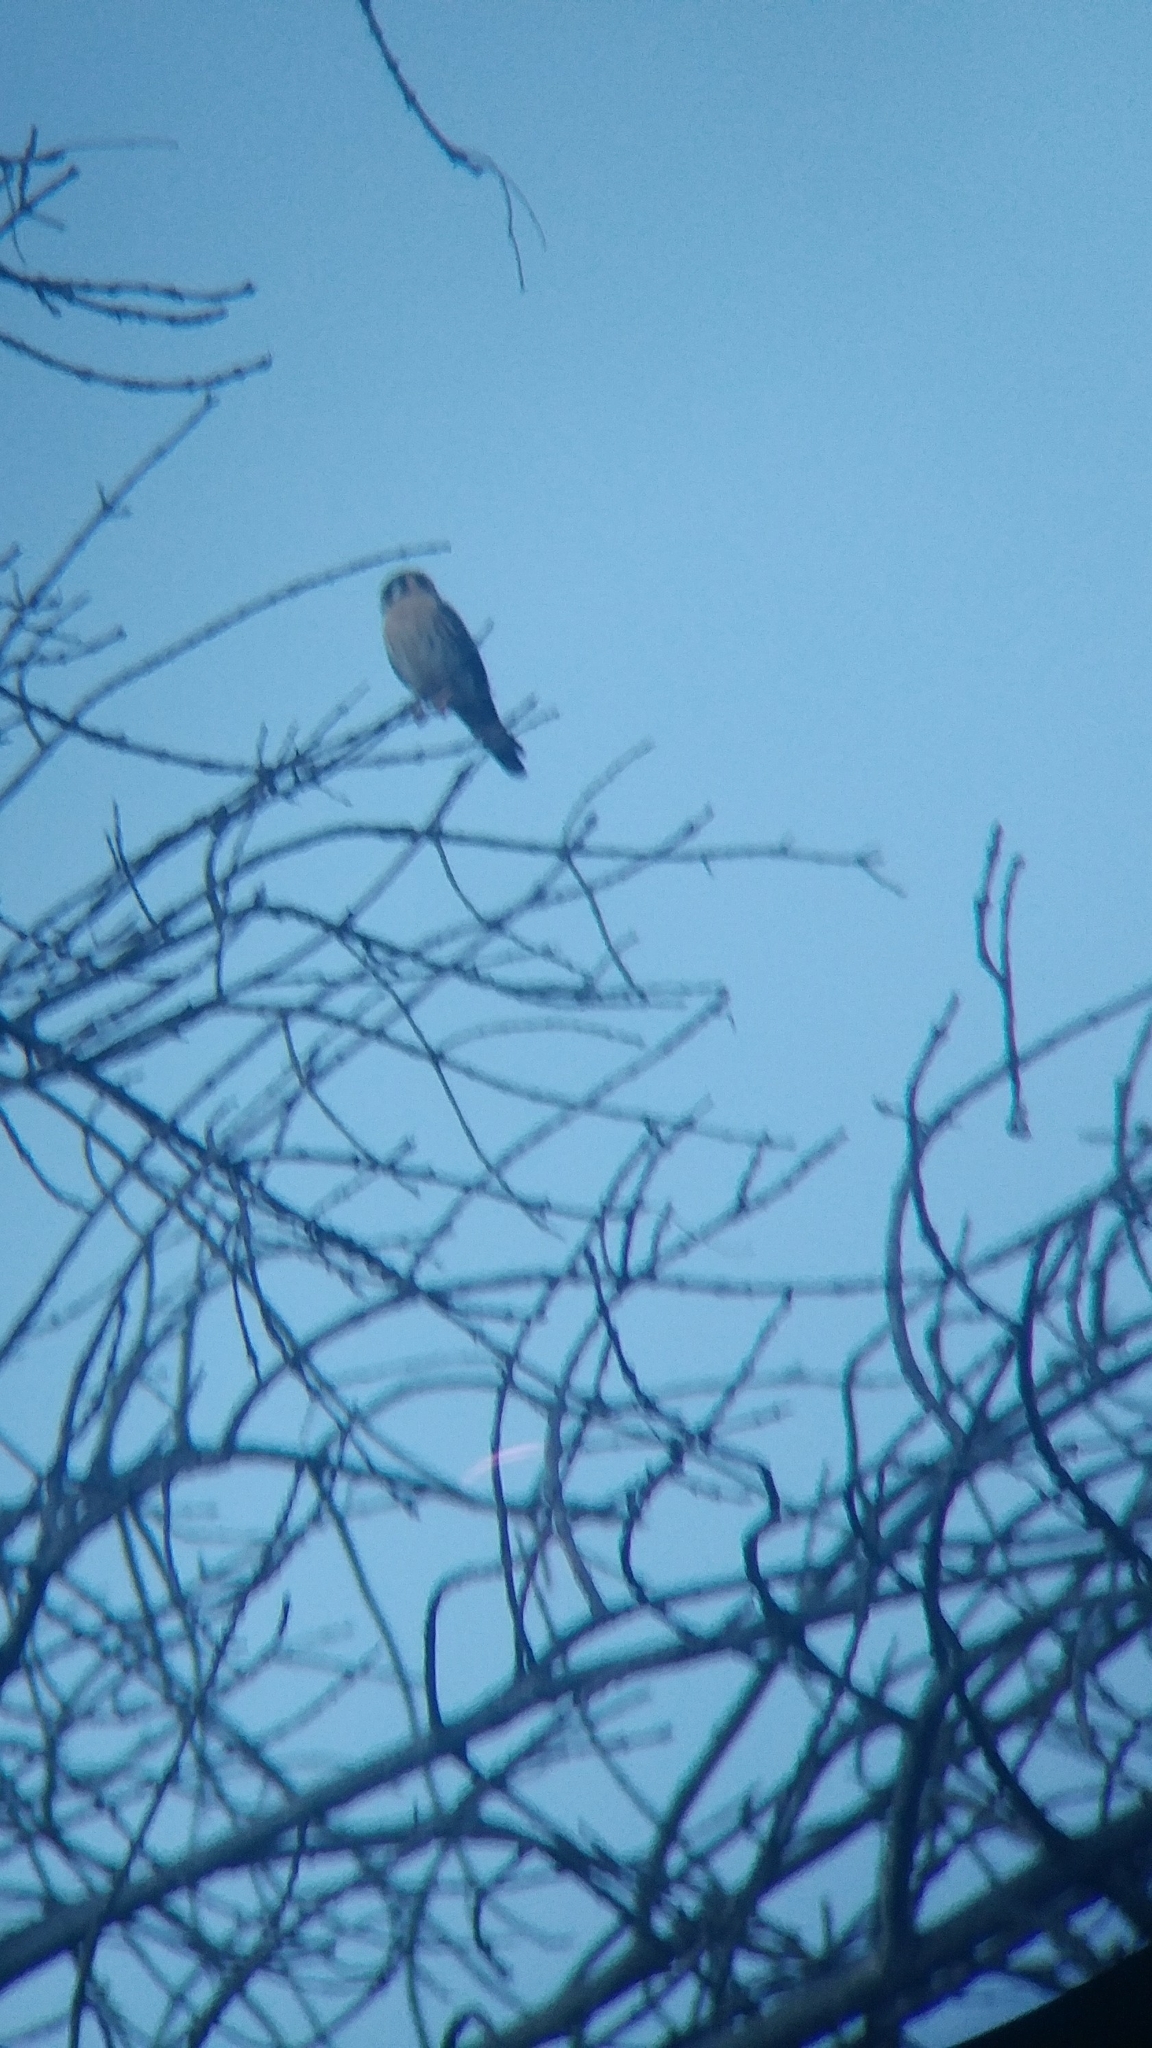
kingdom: Animalia
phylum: Chordata
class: Aves
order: Falconiformes
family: Falconidae
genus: Falco
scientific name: Falco sparverius
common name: American kestrel
